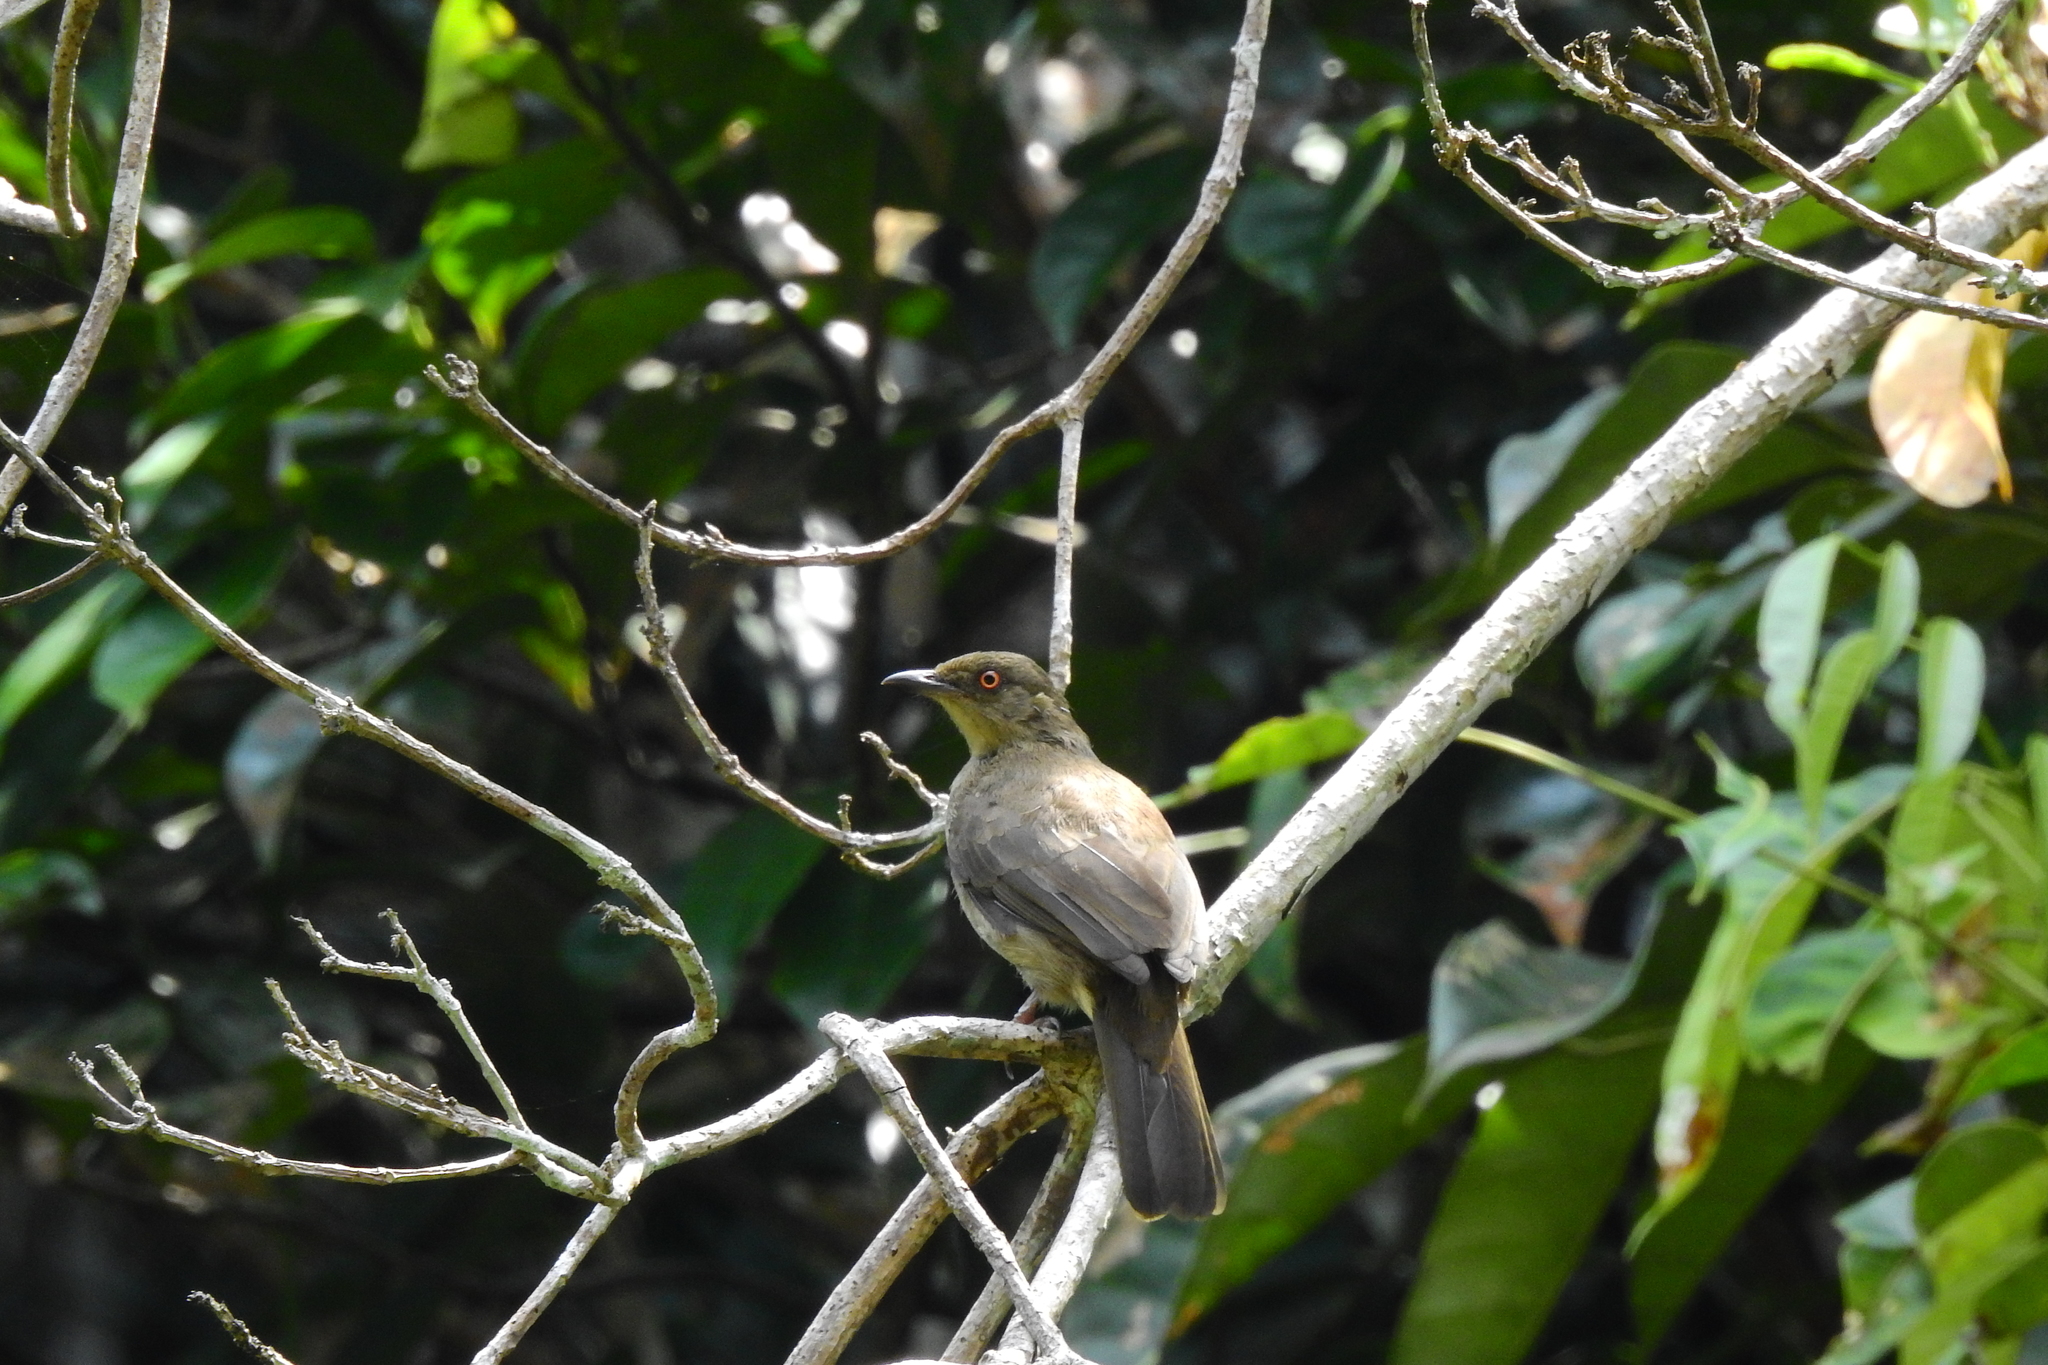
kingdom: Animalia
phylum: Chordata
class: Aves
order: Passeriformes
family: Pycnonotidae
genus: Pycnonotus
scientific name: Pycnonotus brunneus
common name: Asian red-eyed bulbul
